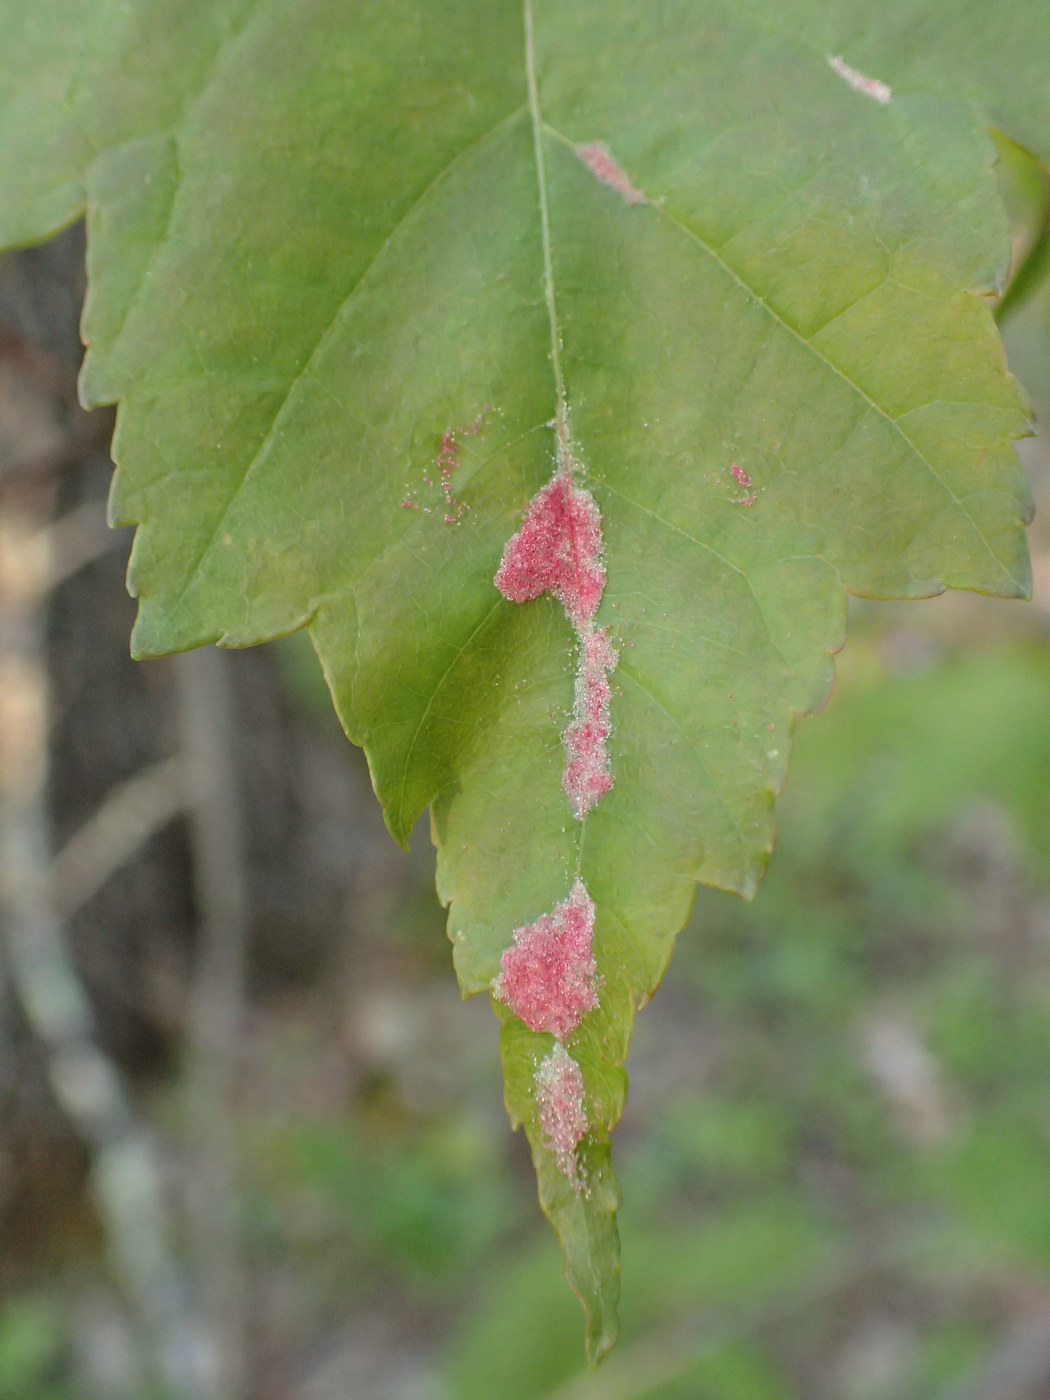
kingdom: Animalia
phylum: Arthropoda
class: Arachnida
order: Trombidiformes
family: Eriophyidae
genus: Aculus
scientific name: Aculus
